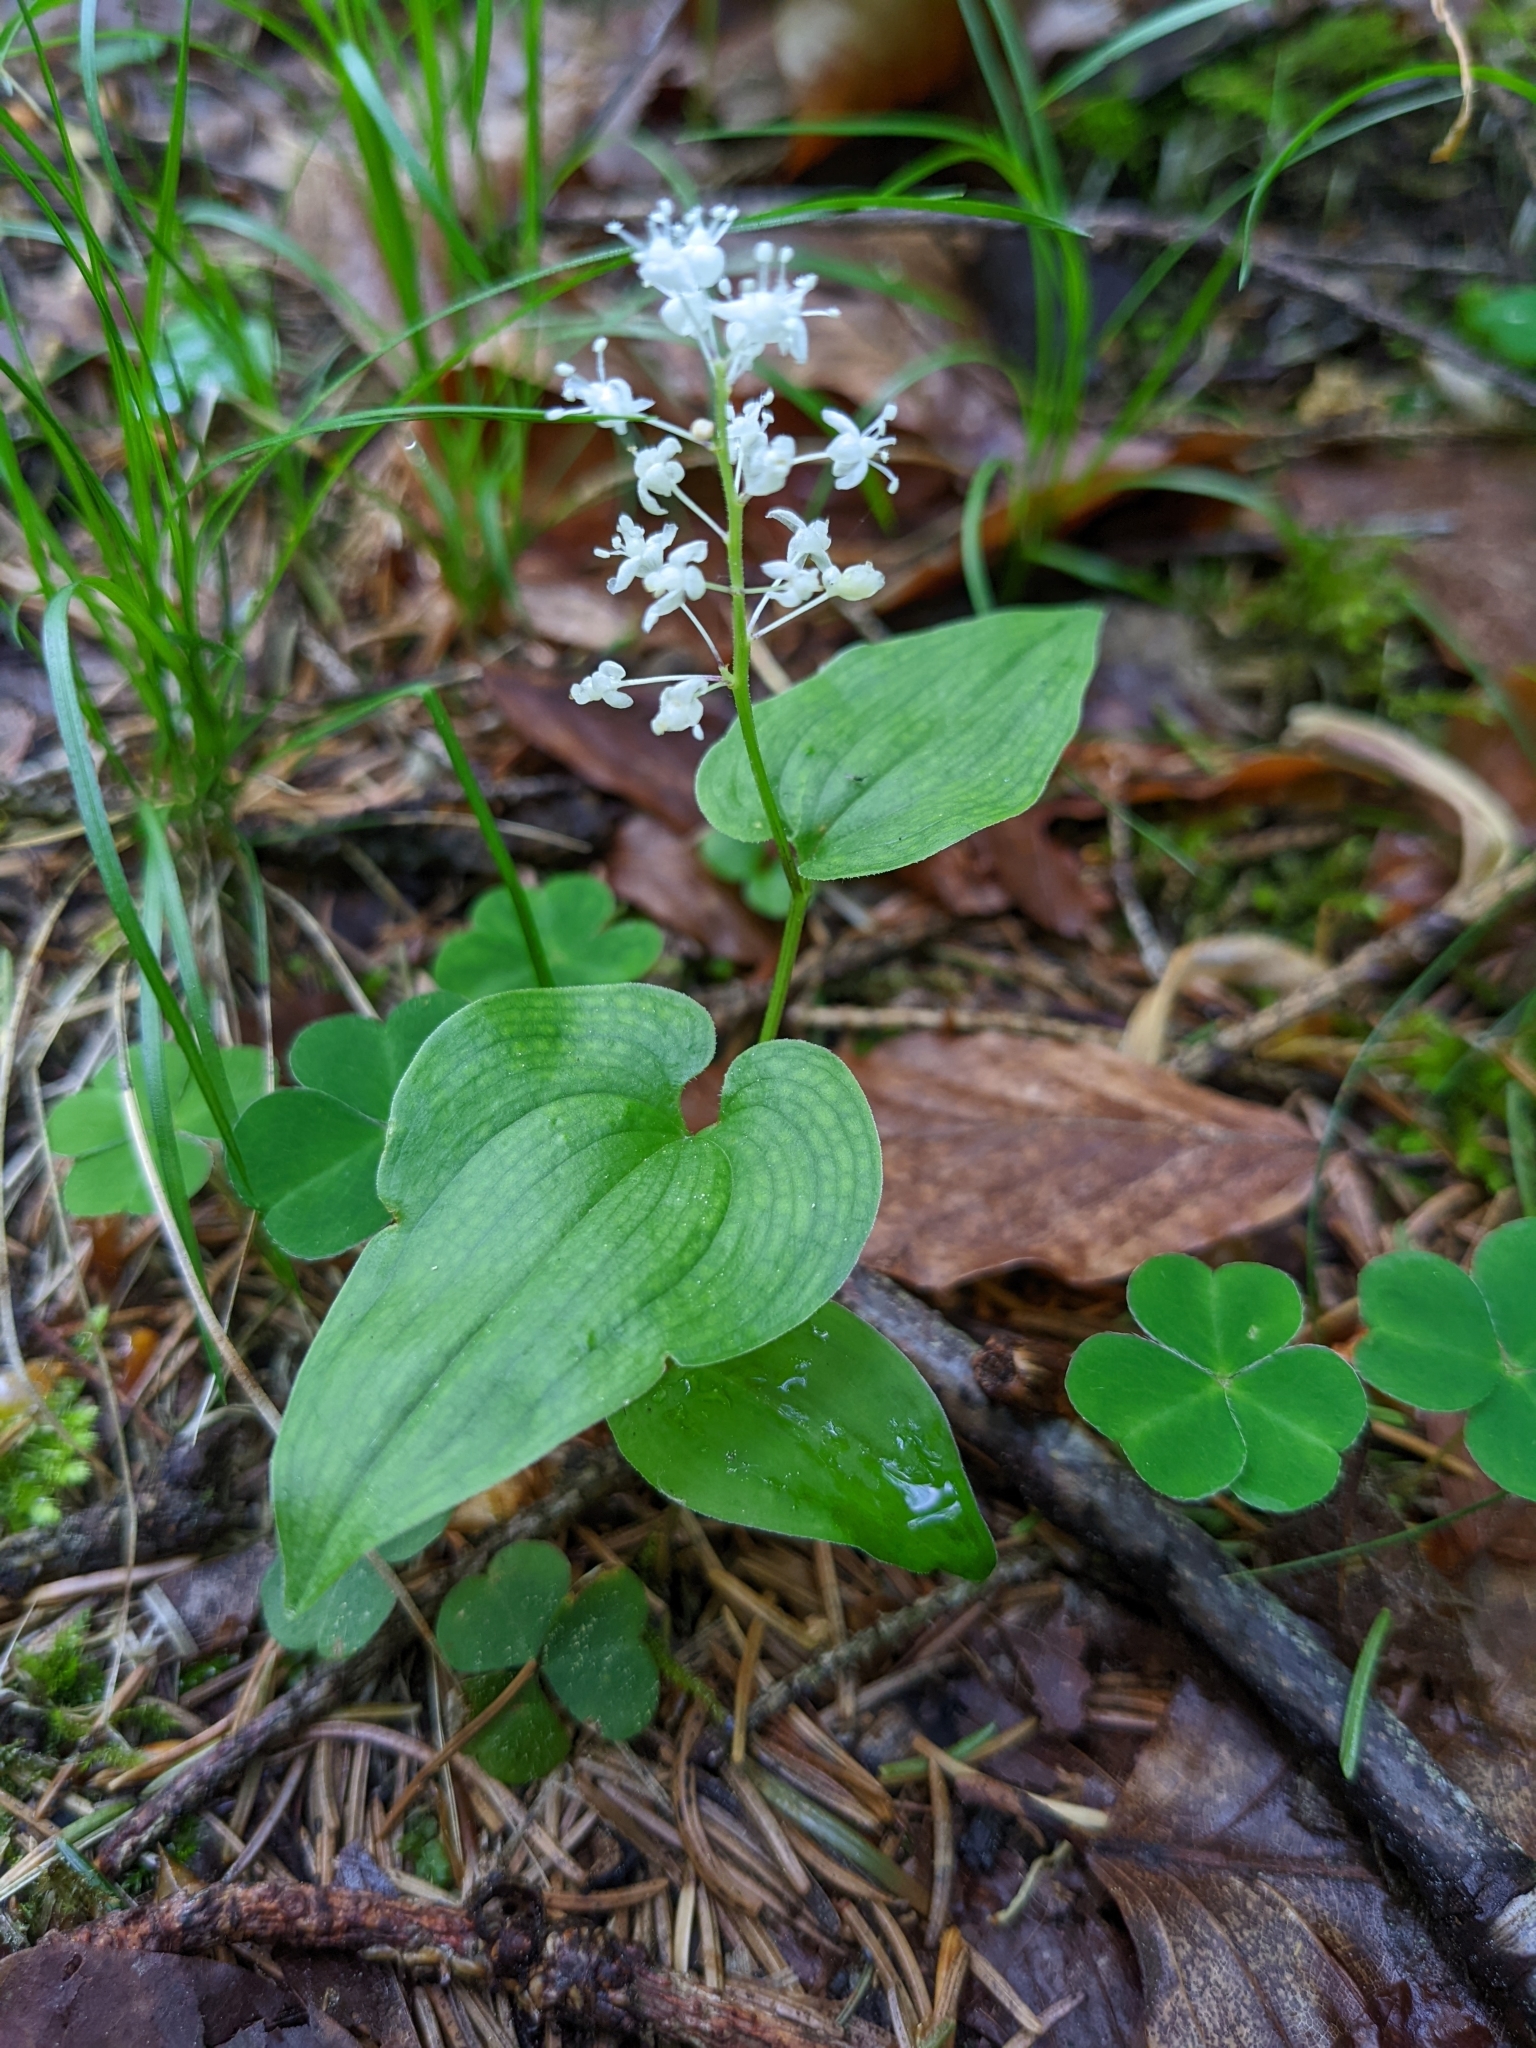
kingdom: Plantae
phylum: Tracheophyta
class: Liliopsida
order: Asparagales
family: Asparagaceae
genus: Maianthemum
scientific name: Maianthemum bifolium
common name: May lily
